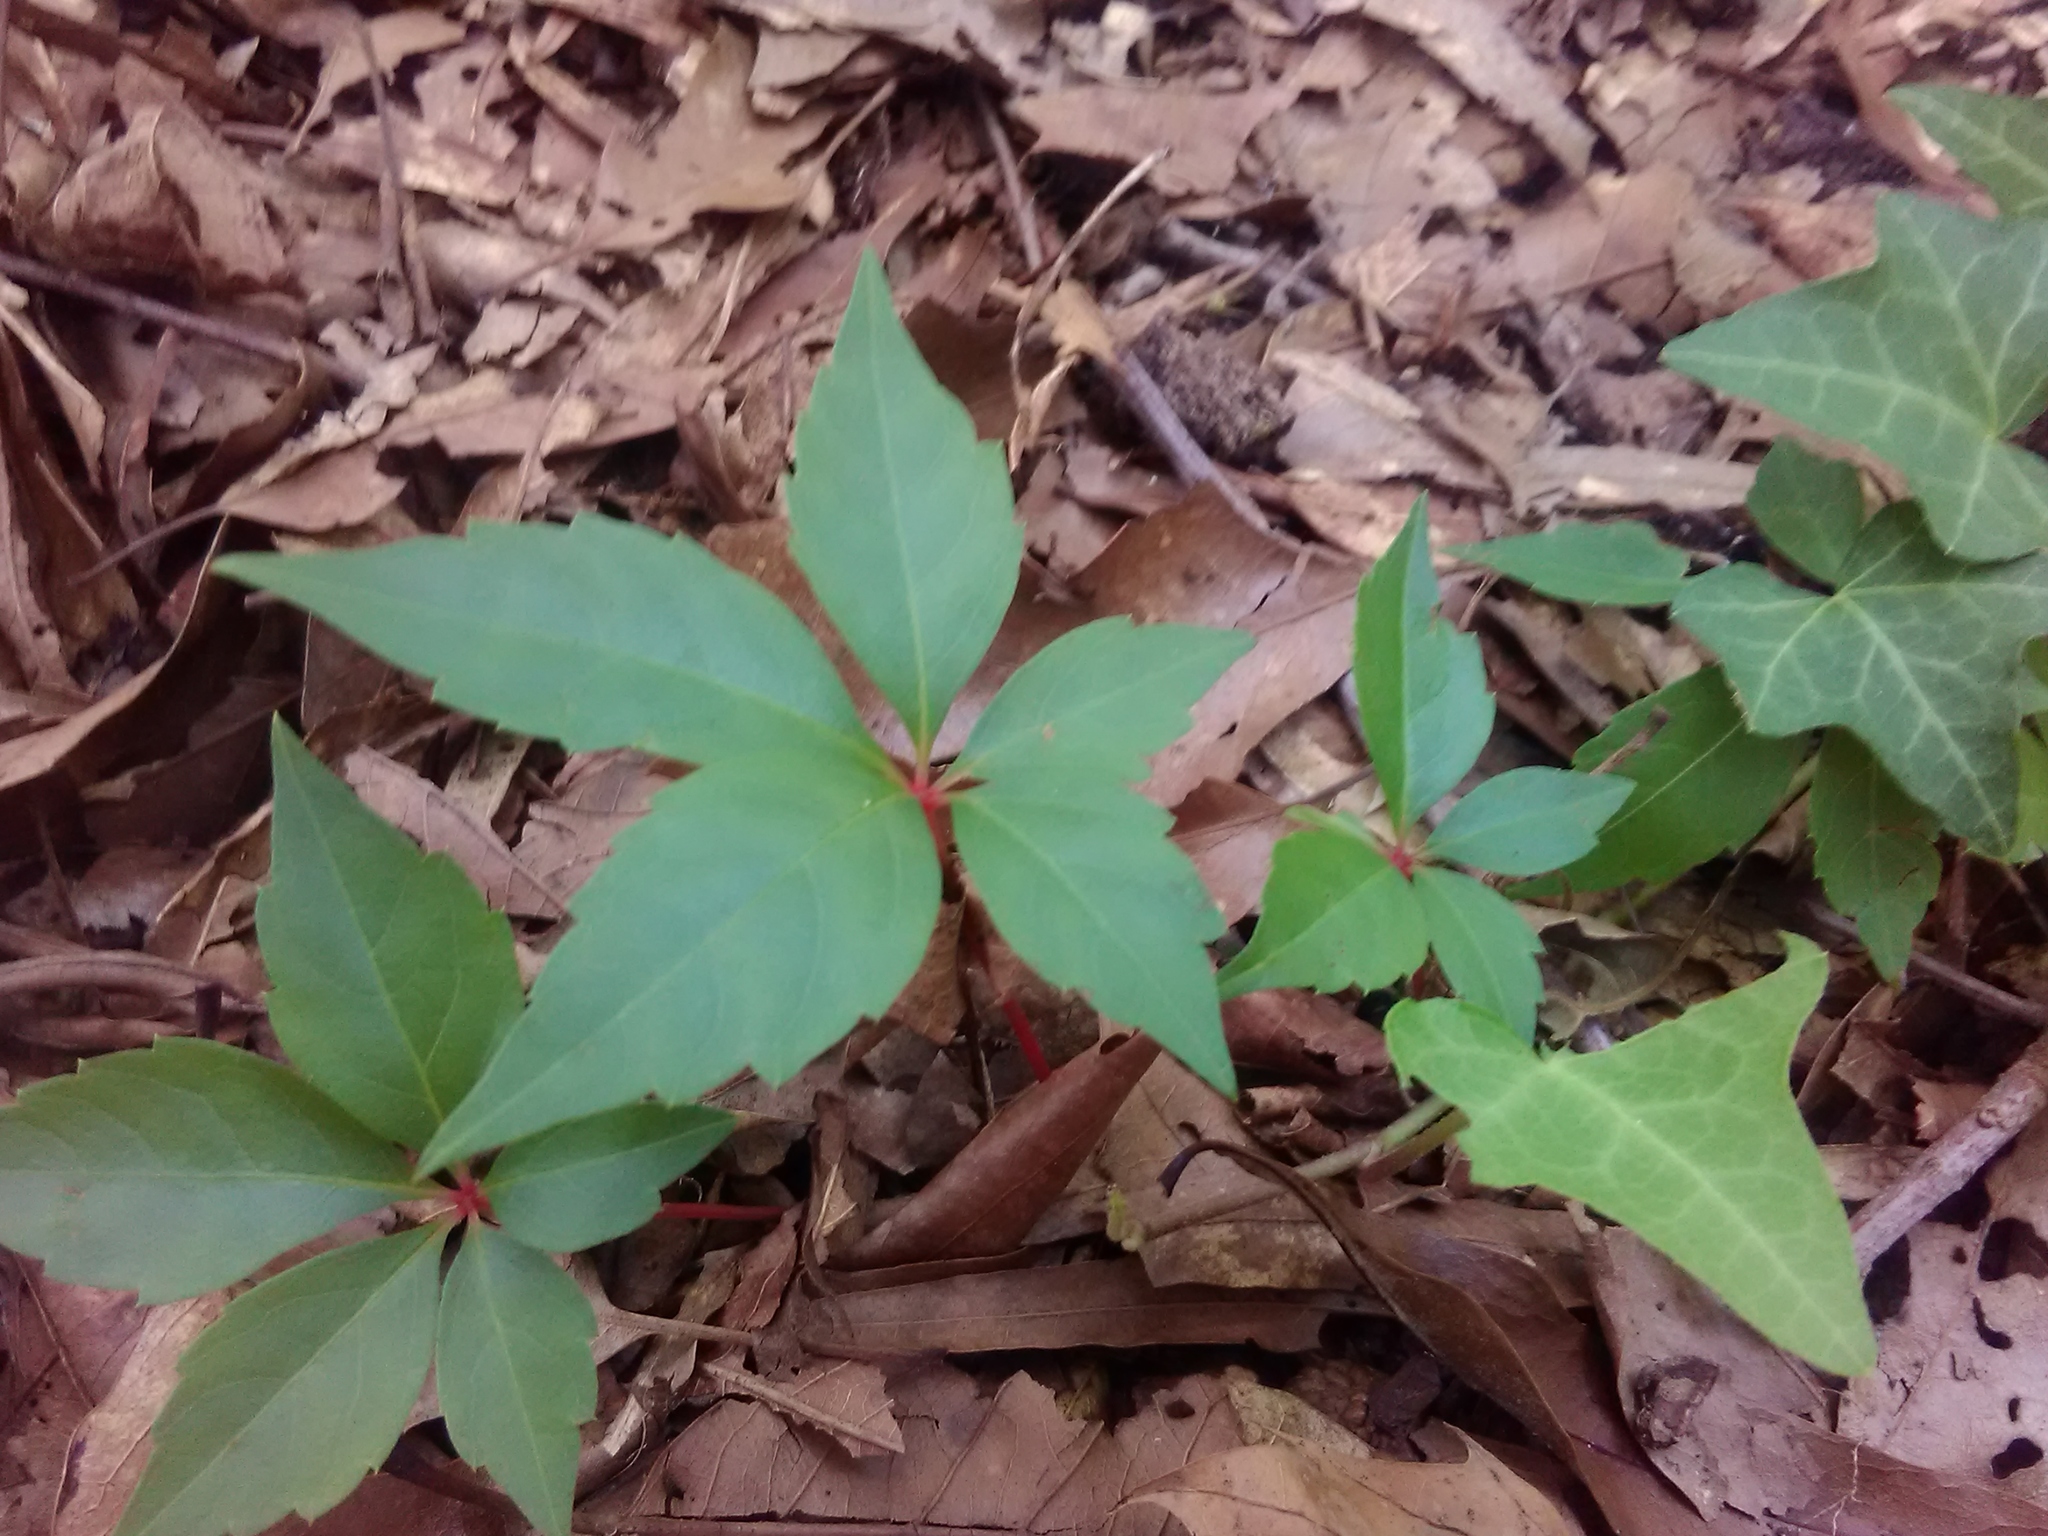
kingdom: Plantae
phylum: Tracheophyta
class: Magnoliopsida
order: Vitales
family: Vitaceae
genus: Parthenocissus
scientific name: Parthenocissus quinquefolia
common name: Virginia-creeper
